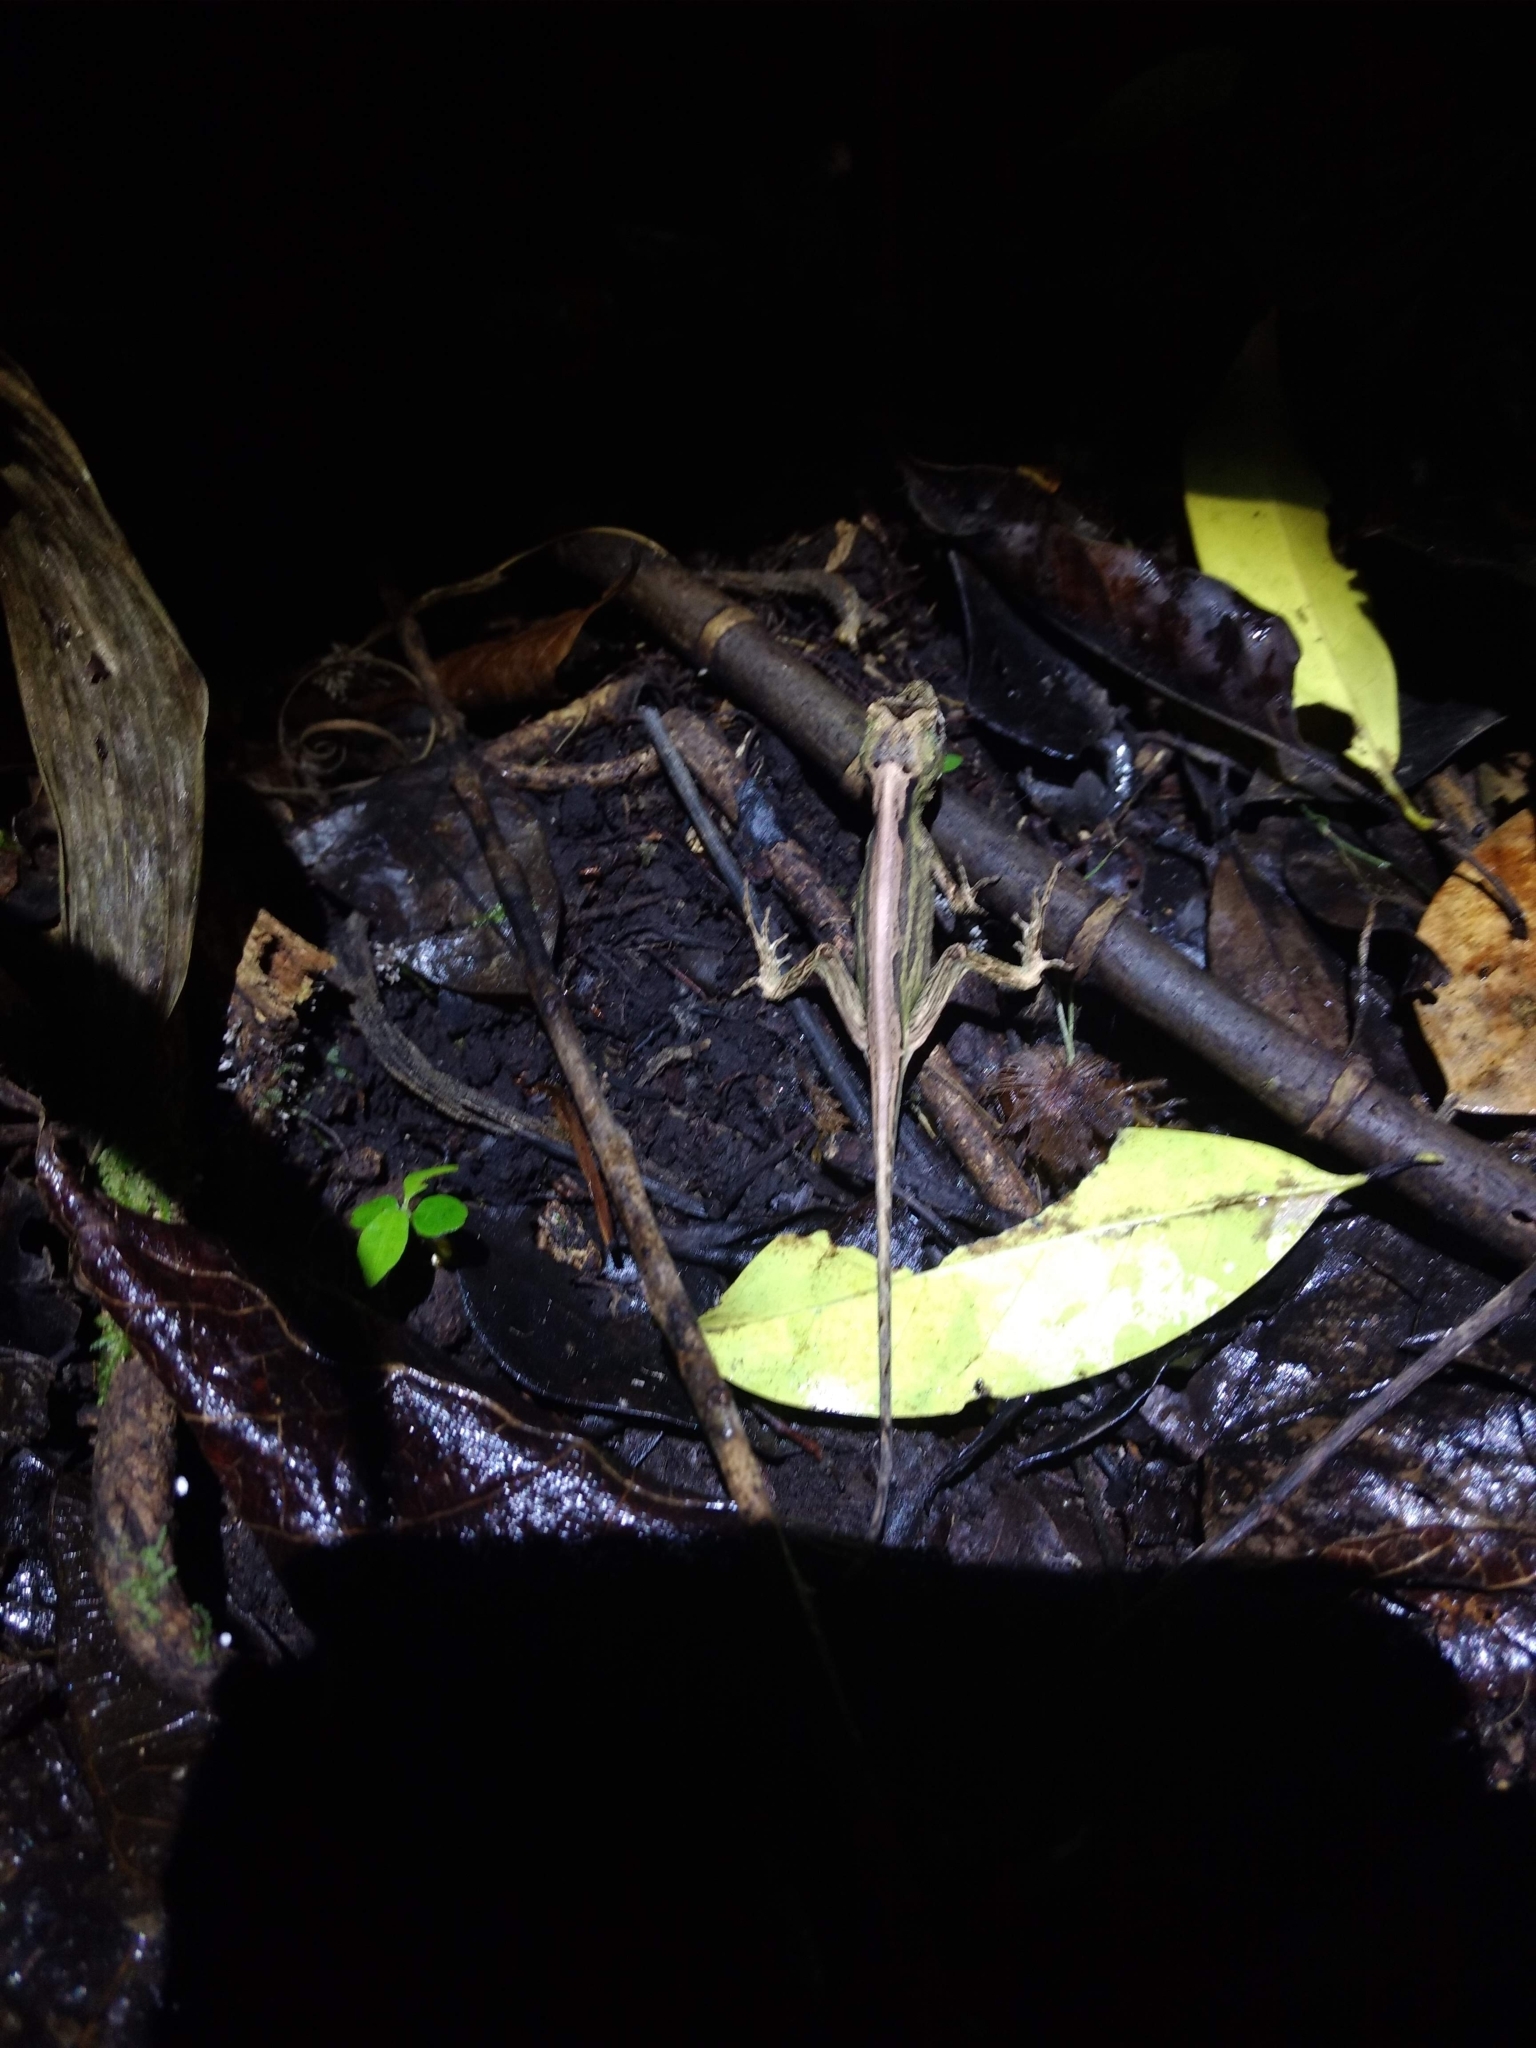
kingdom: Animalia
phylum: Chordata
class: Squamata
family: Dactyloidae
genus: Anolis
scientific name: Anolis capito
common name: Bighead anole
